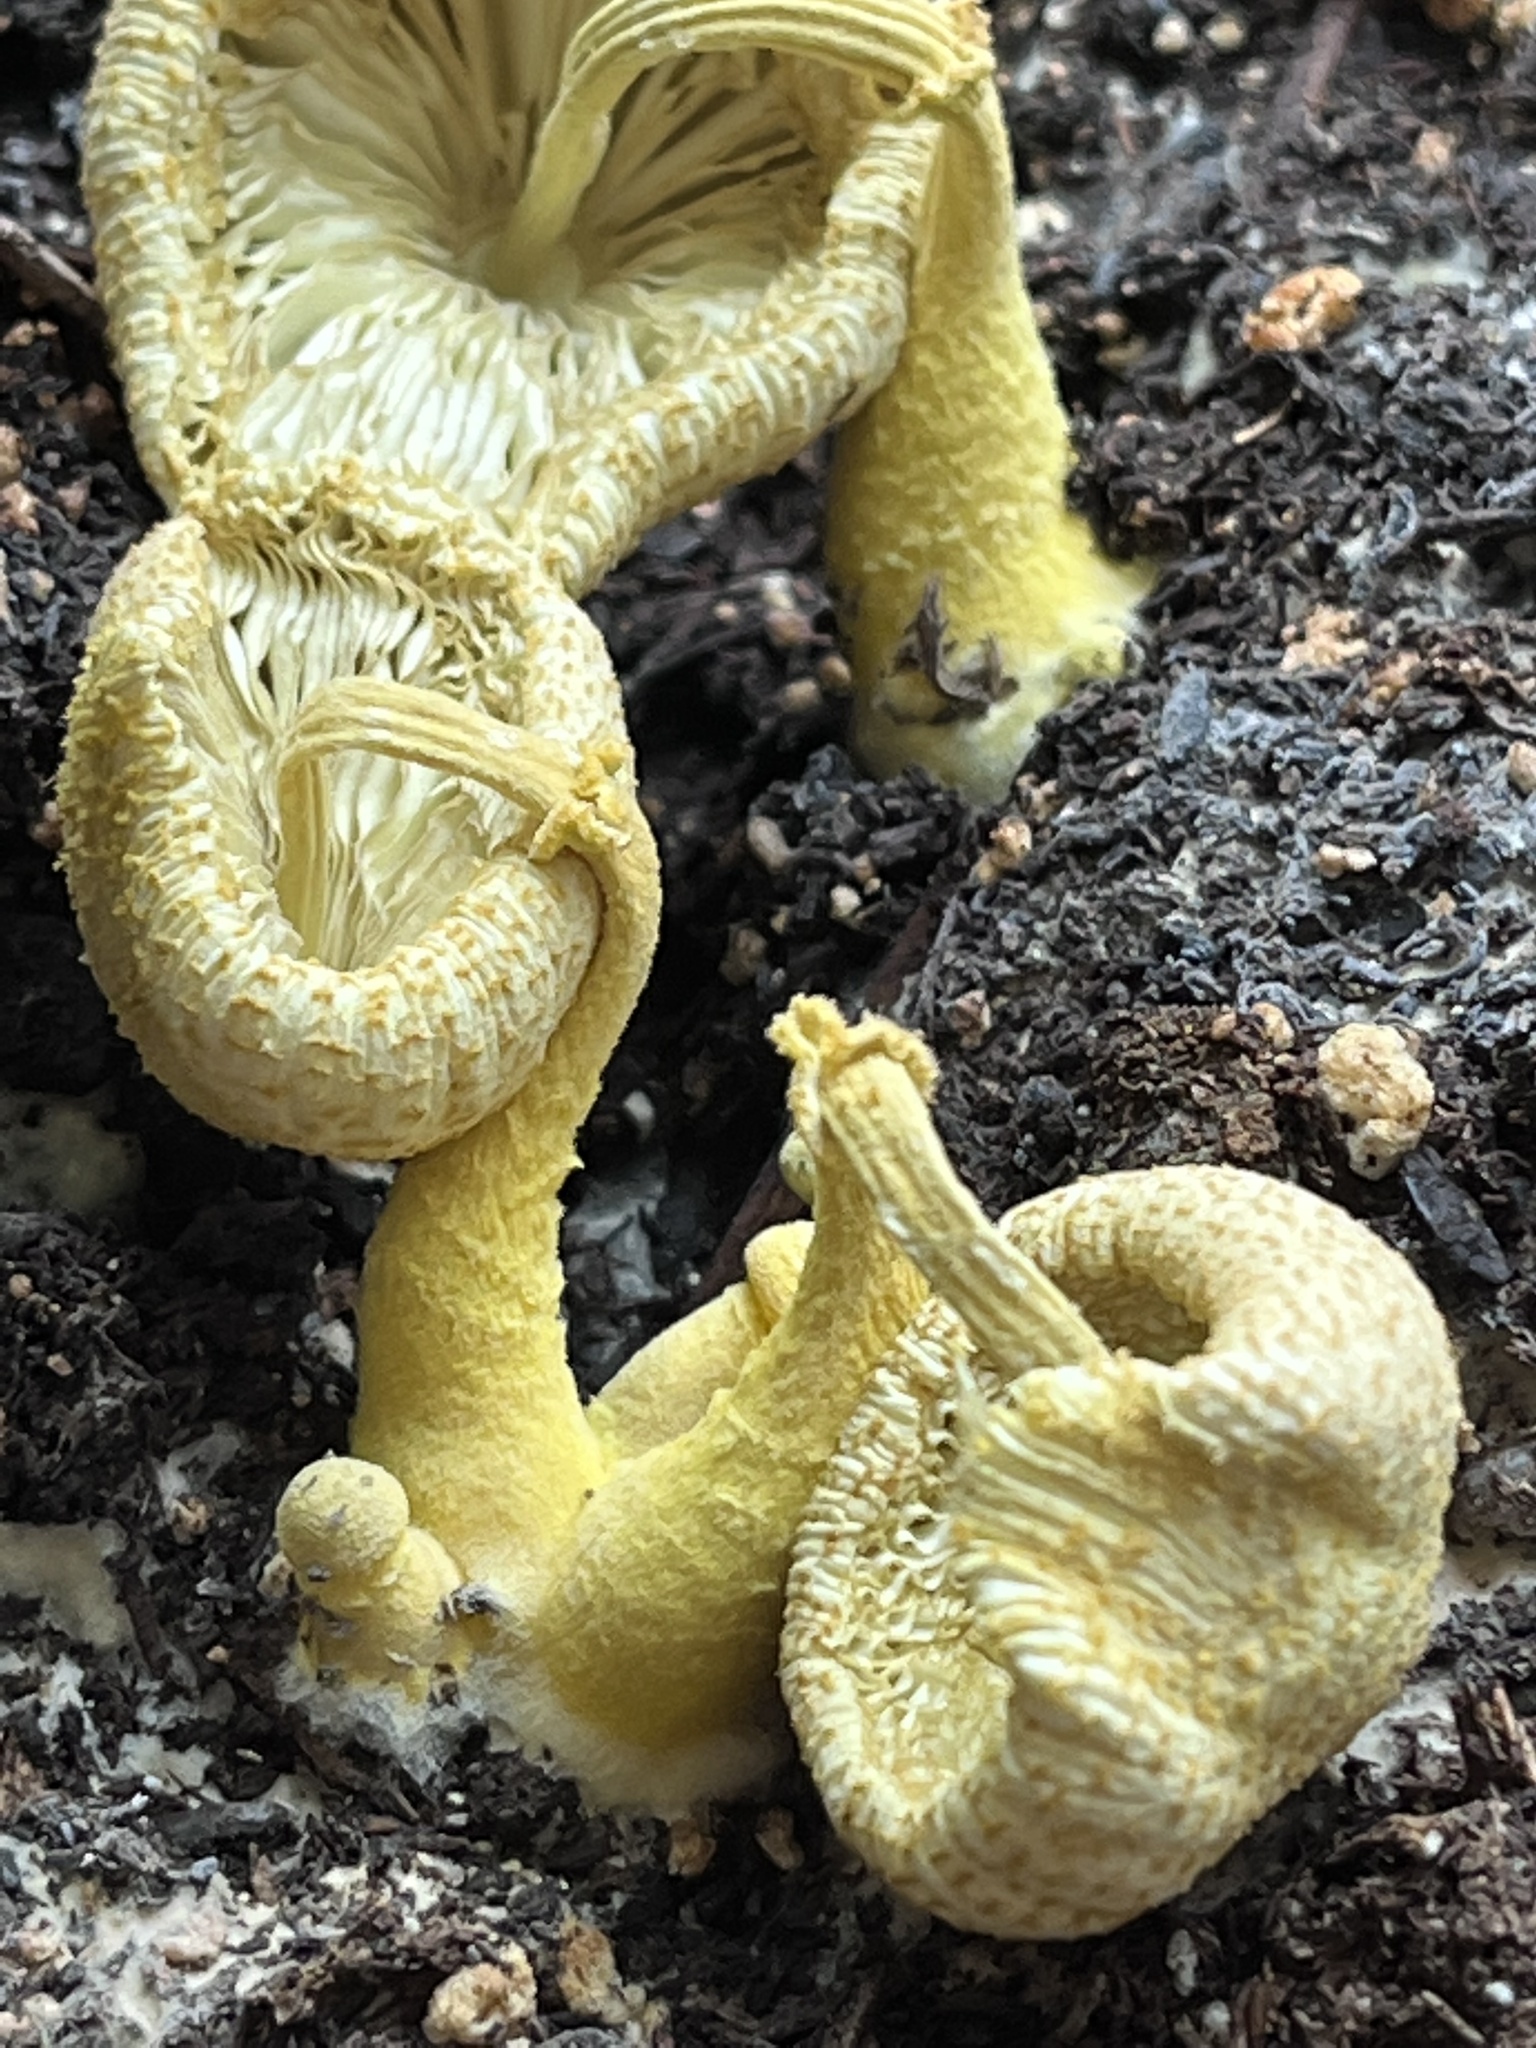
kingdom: Fungi
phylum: Basidiomycota
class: Agaricomycetes
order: Agaricales
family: Agaricaceae
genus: Leucocoprinus
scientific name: Leucocoprinus birnbaumii
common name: Plantpot dapperling
